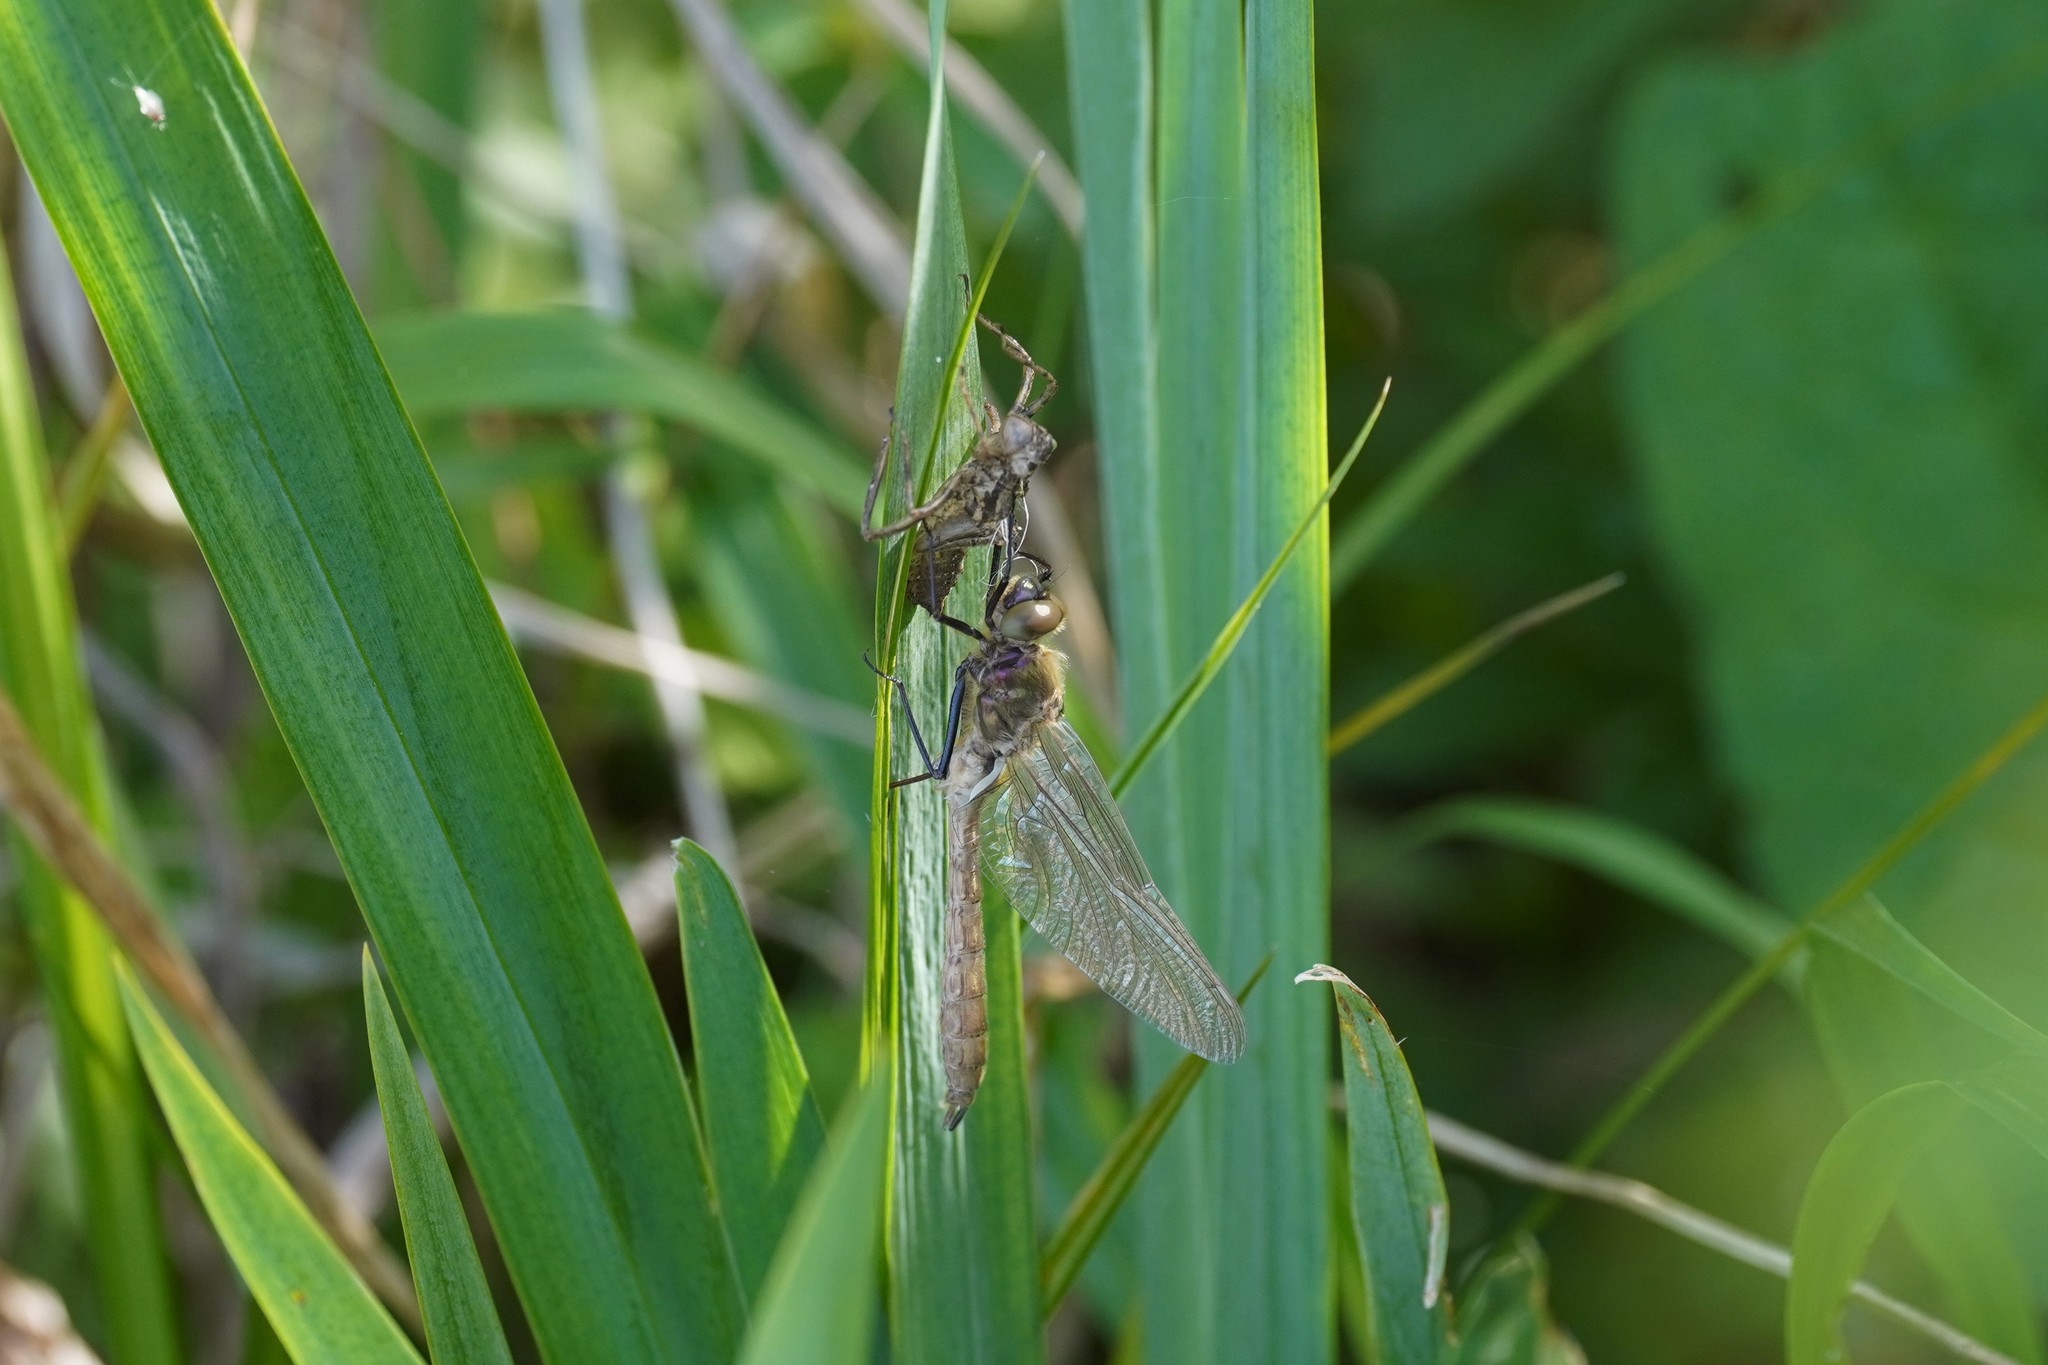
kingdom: Animalia
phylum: Arthropoda
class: Insecta
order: Odonata
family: Corduliidae
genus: Cordulia
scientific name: Cordulia aenea
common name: Downy emerald
